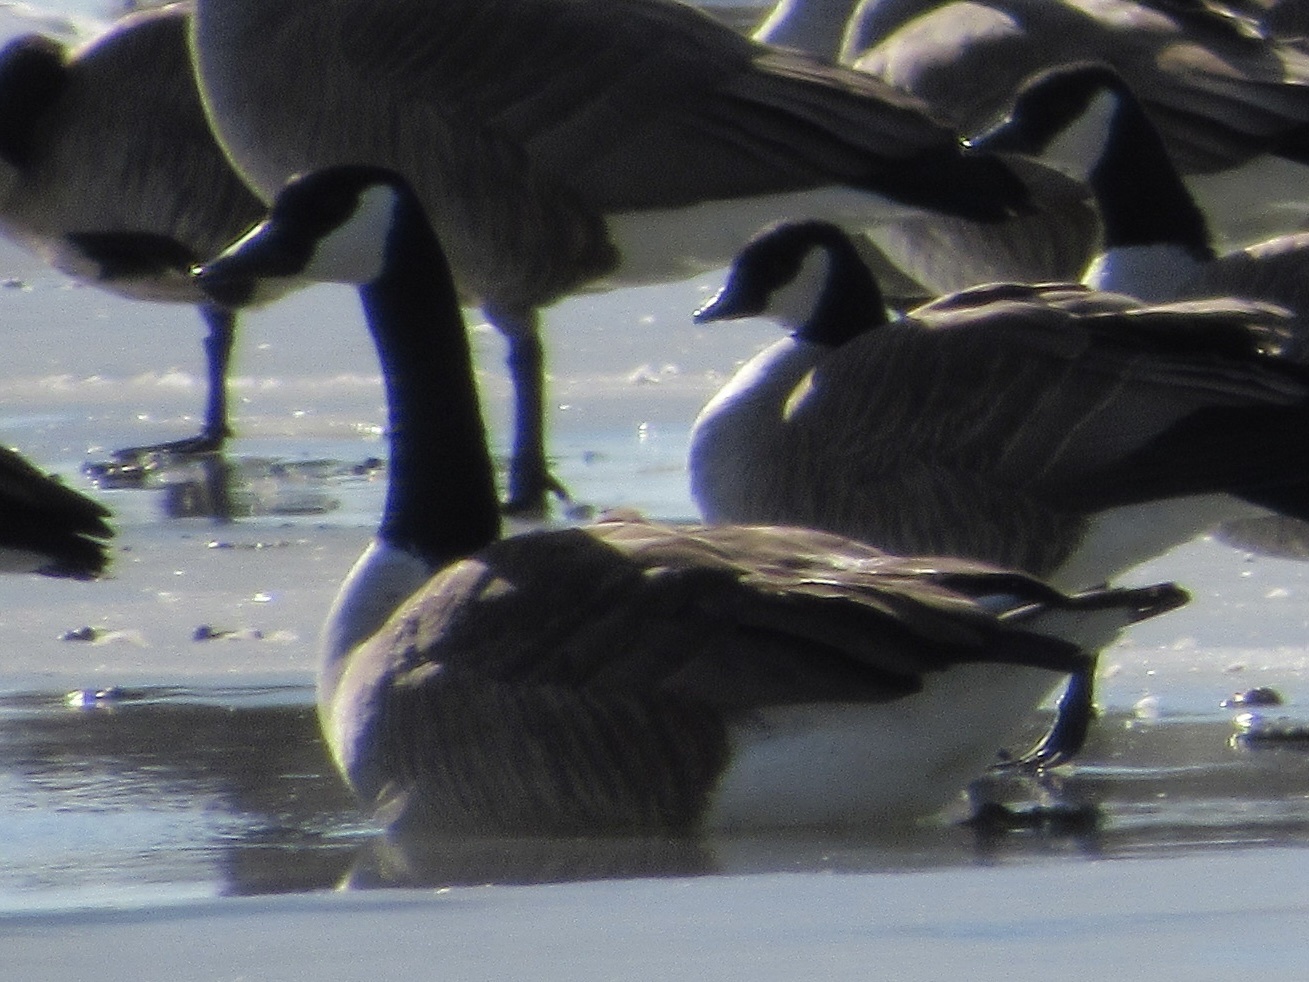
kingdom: Animalia
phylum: Chordata
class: Aves
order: Anseriformes
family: Anatidae
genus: Branta
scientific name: Branta canadensis
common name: Canada goose
